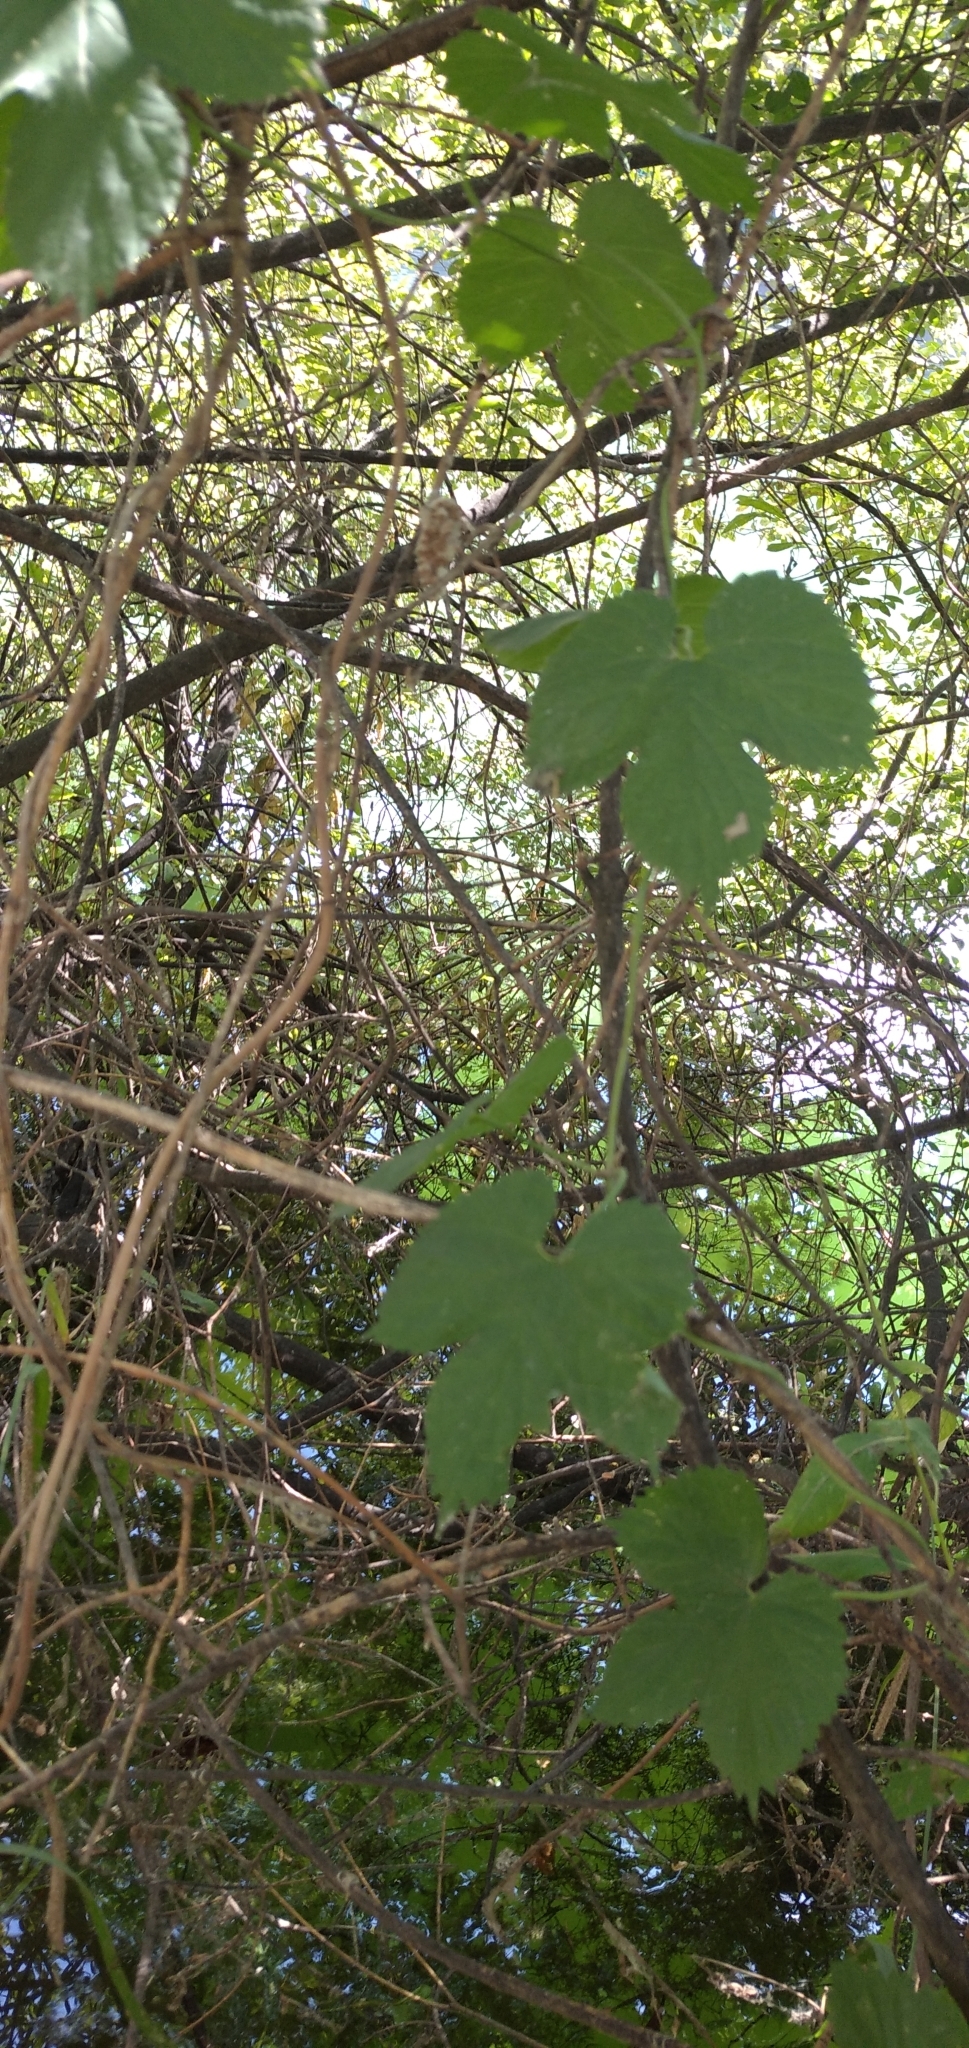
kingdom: Plantae
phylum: Tracheophyta
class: Magnoliopsida
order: Rosales
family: Cannabaceae
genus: Humulus
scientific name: Humulus lupulus
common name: Hop
